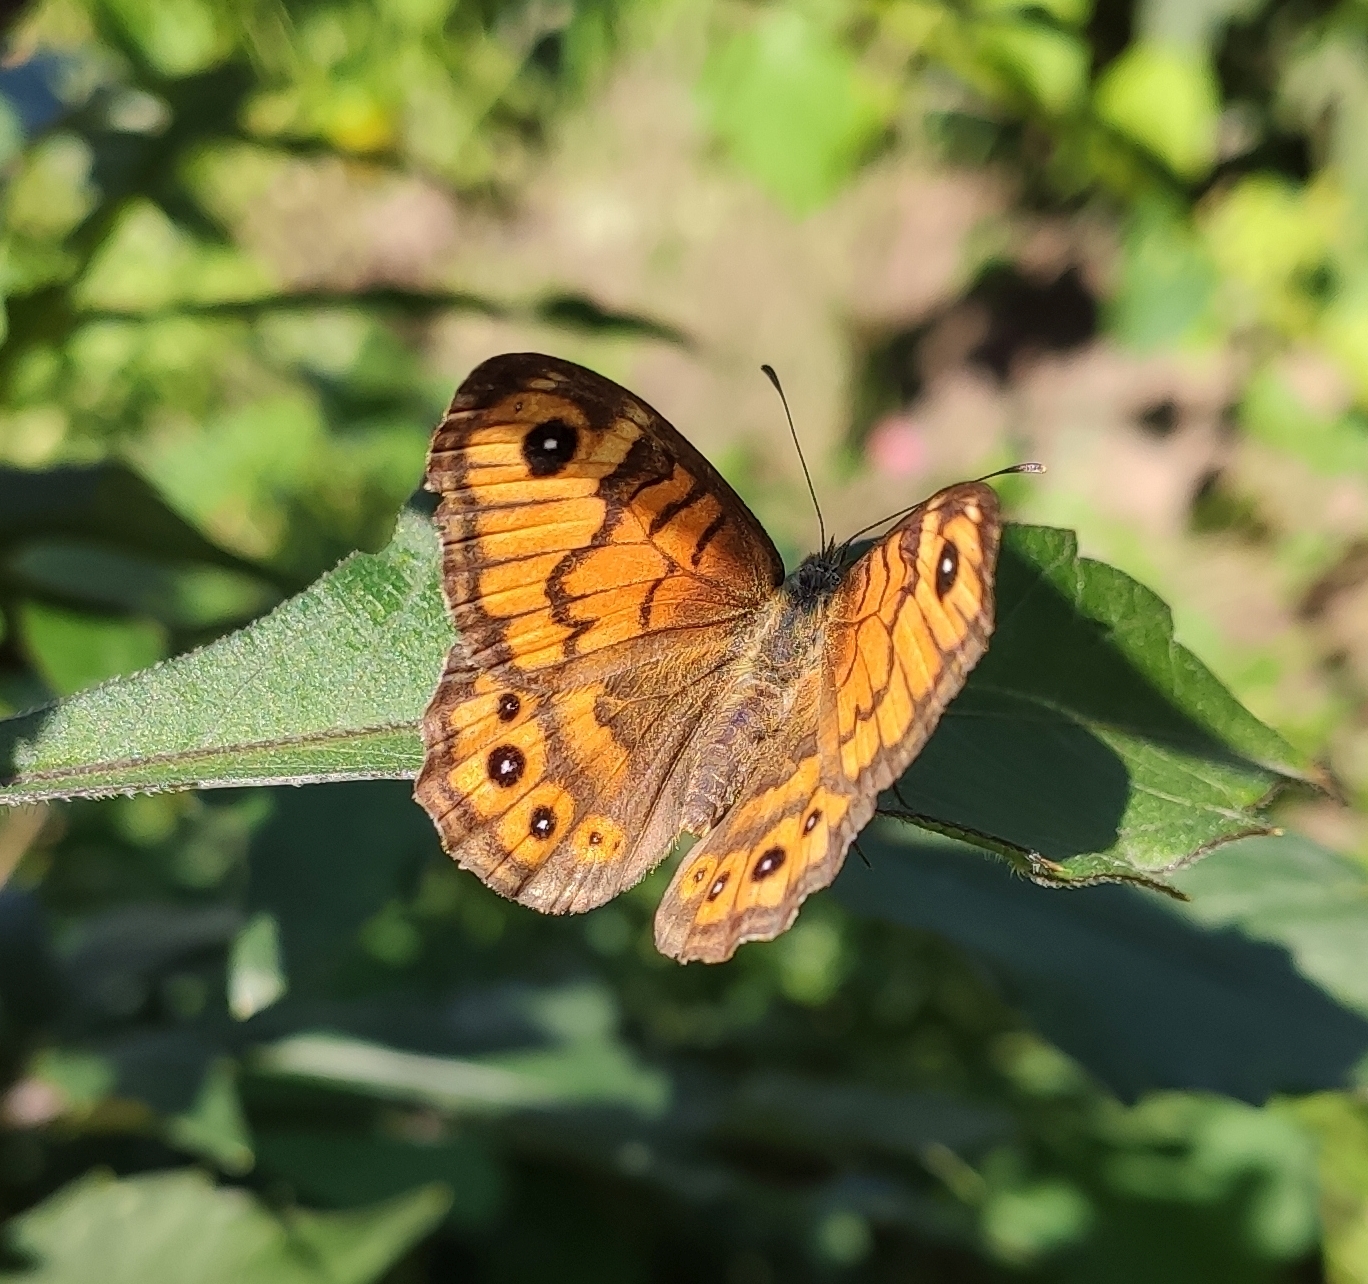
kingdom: Animalia
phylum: Arthropoda
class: Insecta
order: Lepidoptera
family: Nymphalidae
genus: Pararge
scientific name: Pararge Lasiommata megera
